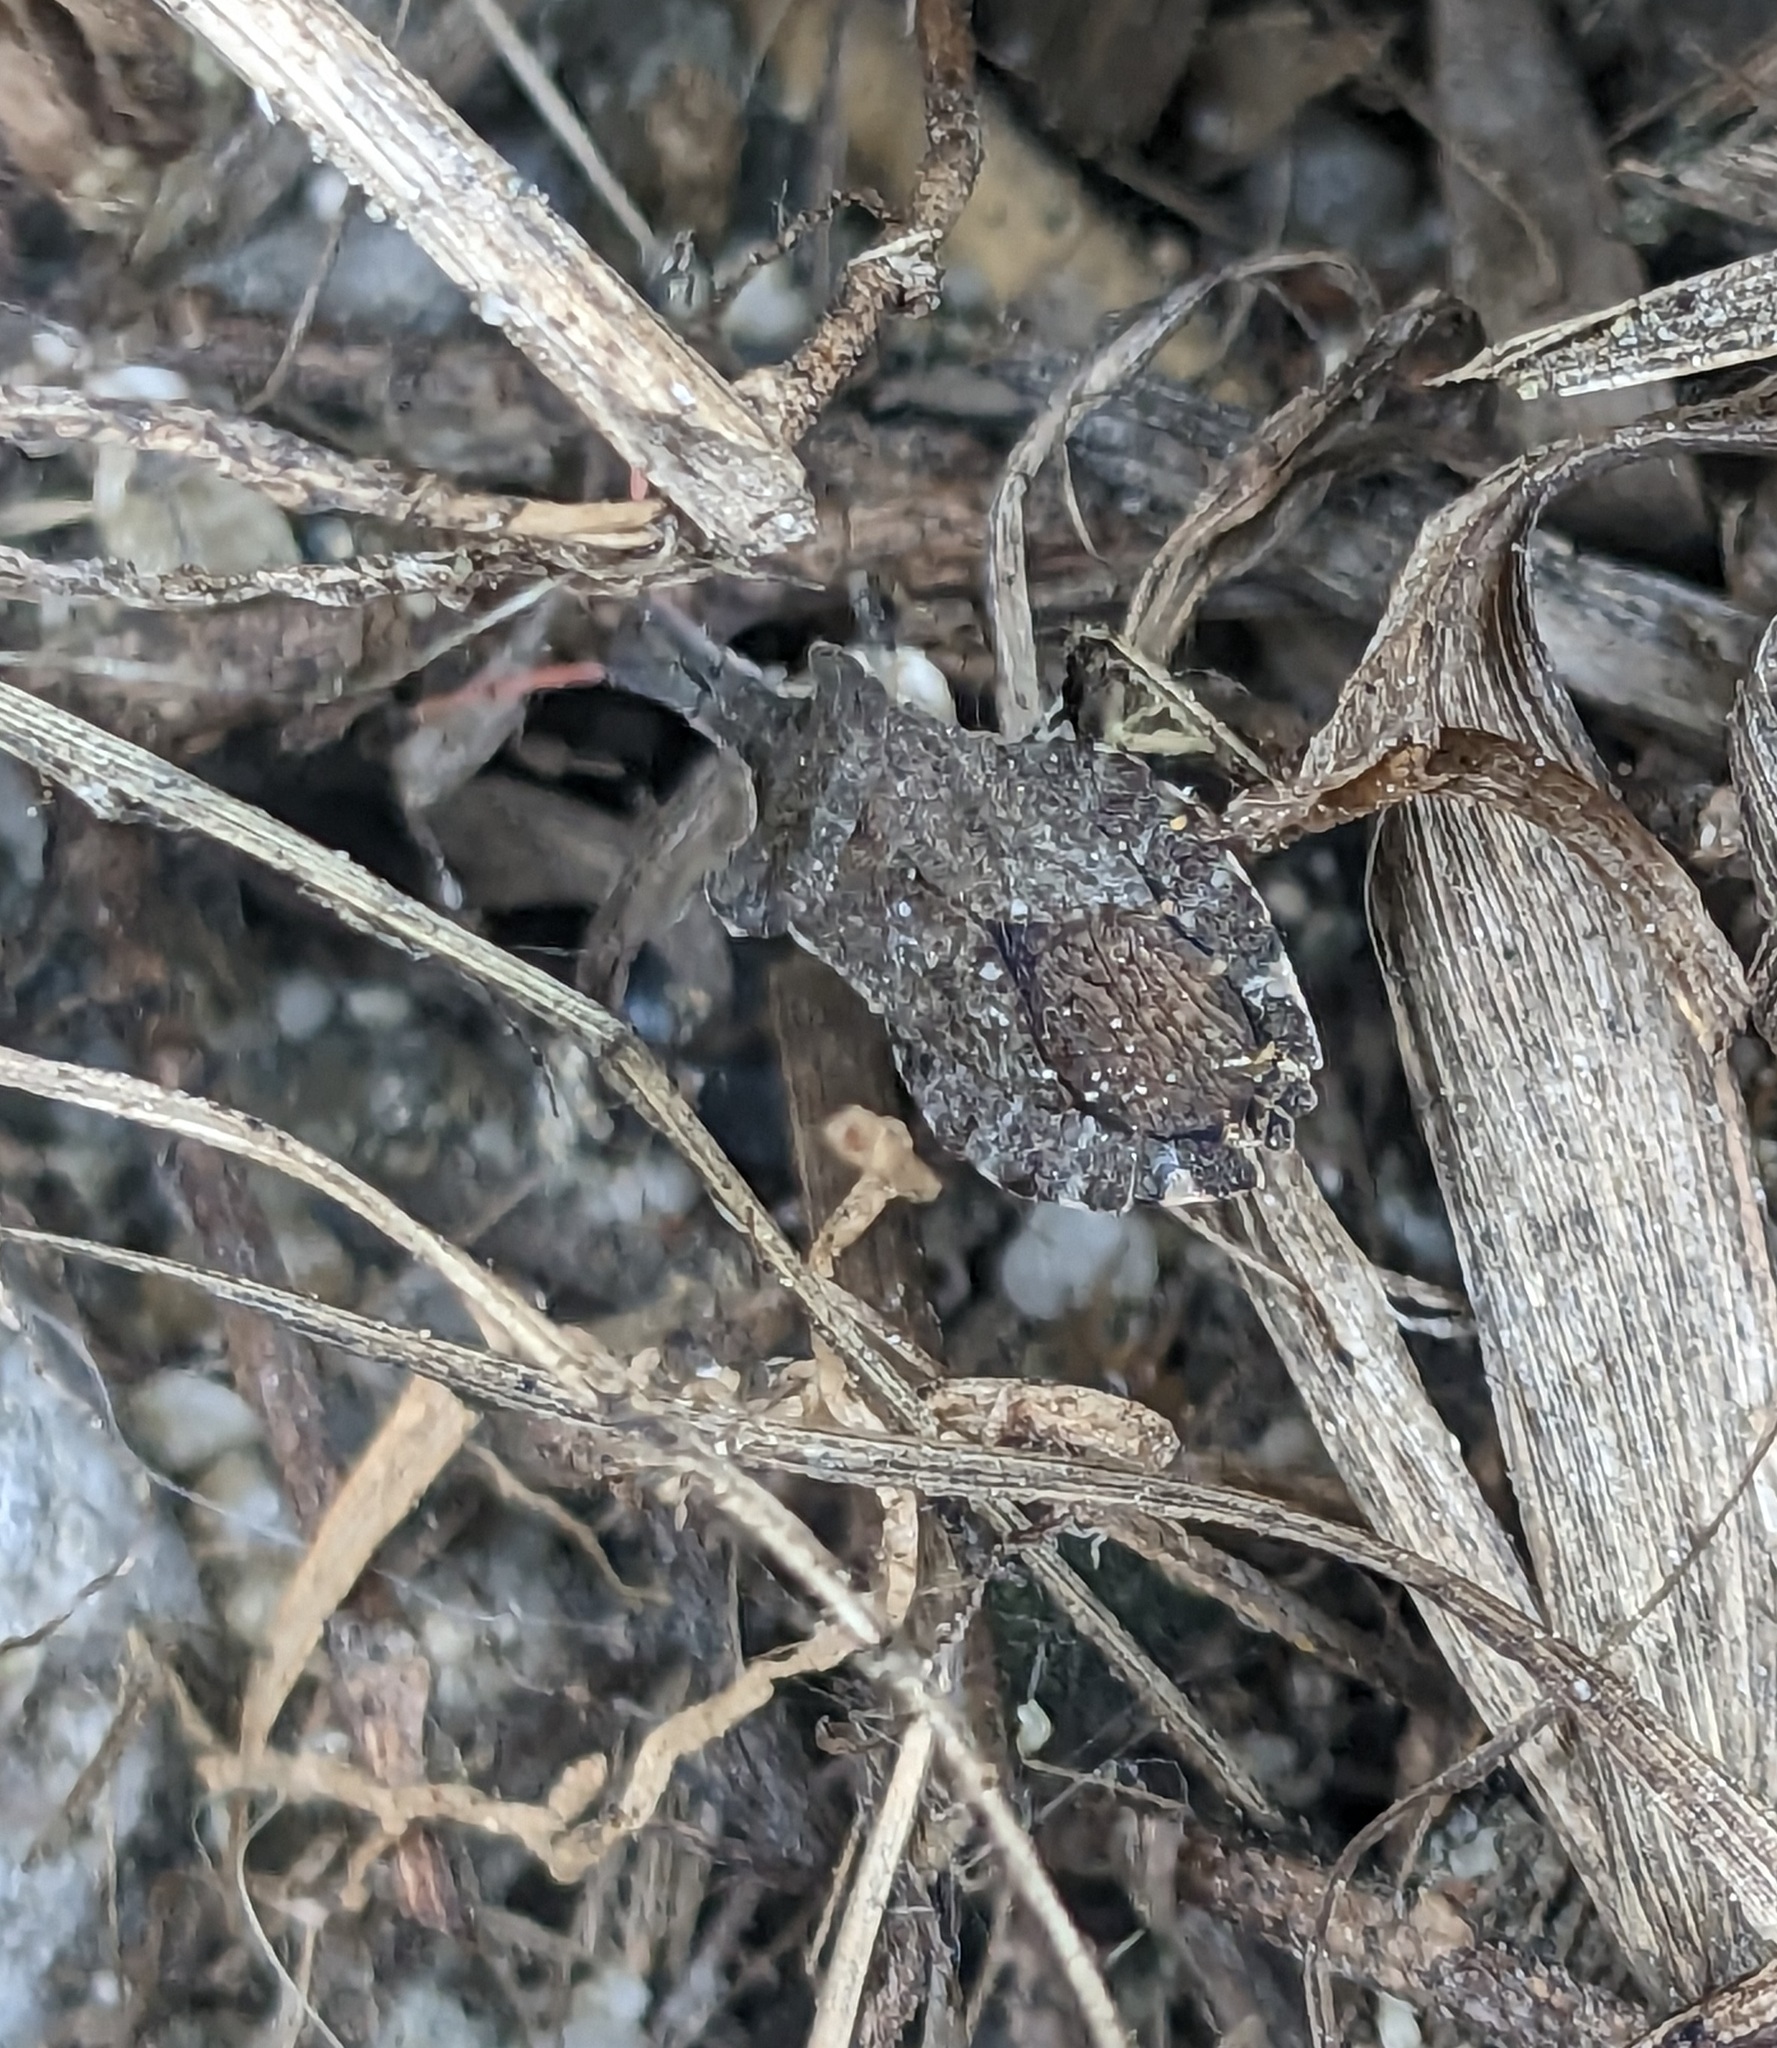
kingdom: Animalia
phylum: Arthropoda
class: Insecta
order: Hemiptera
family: Coreidae
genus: Enoplops
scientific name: Enoplops scapha
